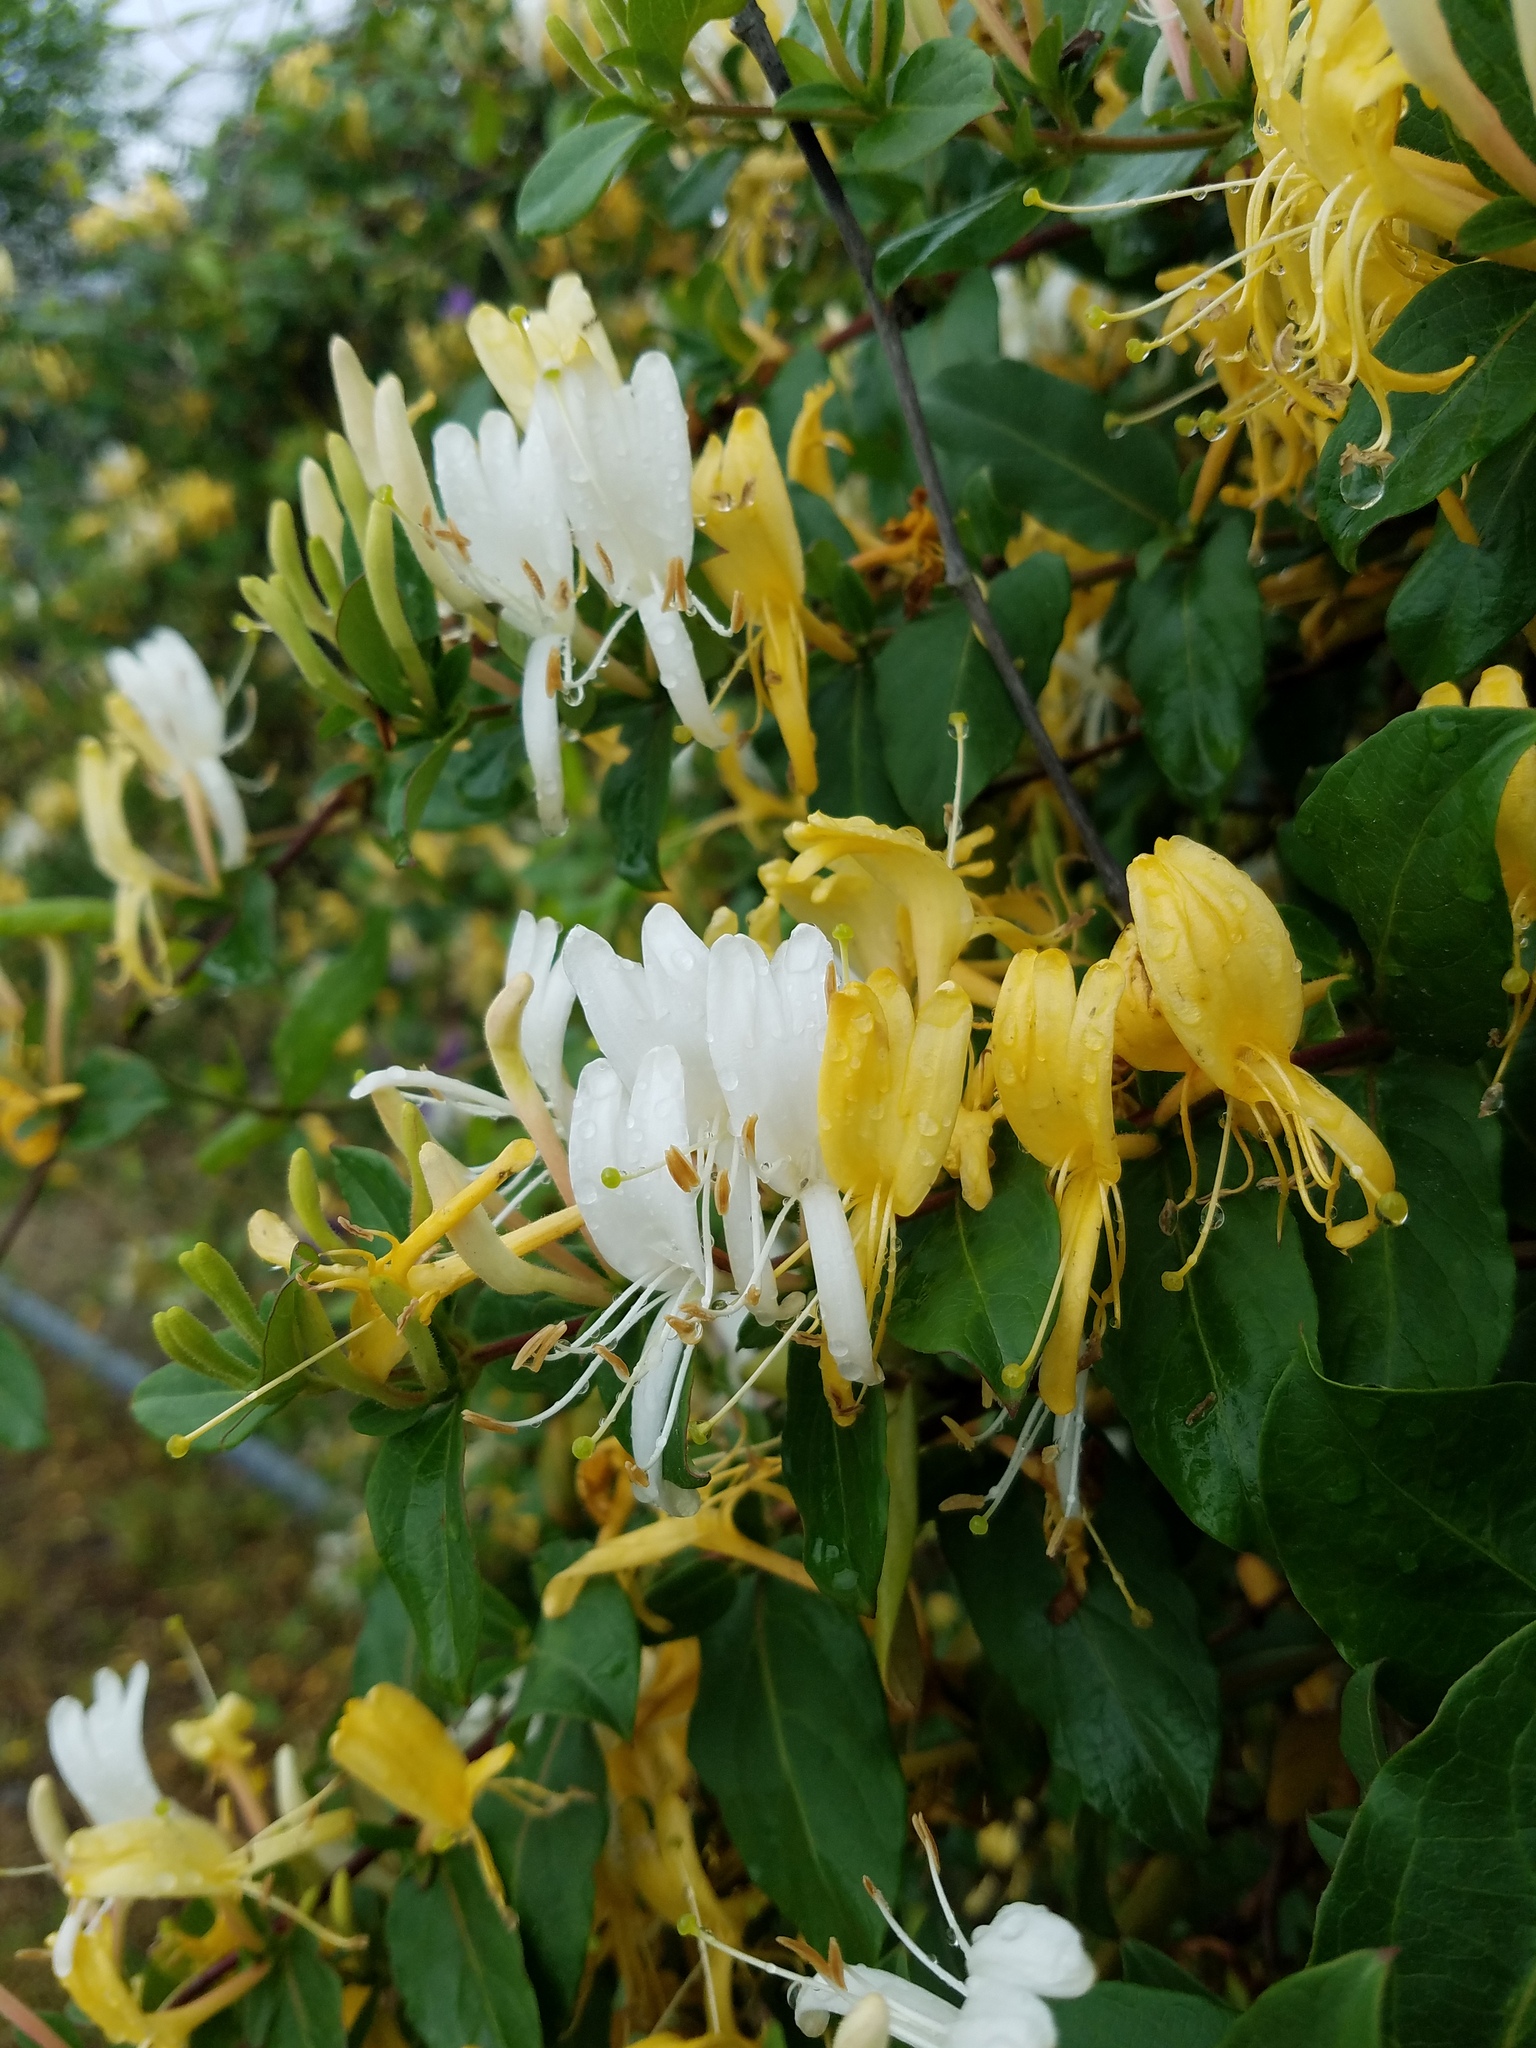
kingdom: Plantae
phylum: Tracheophyta
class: Magnoliopsida
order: Dipsacales
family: Caprifoliaceae
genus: Lonicera
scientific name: Lonicera japonica
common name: Japanese honeysuckle
